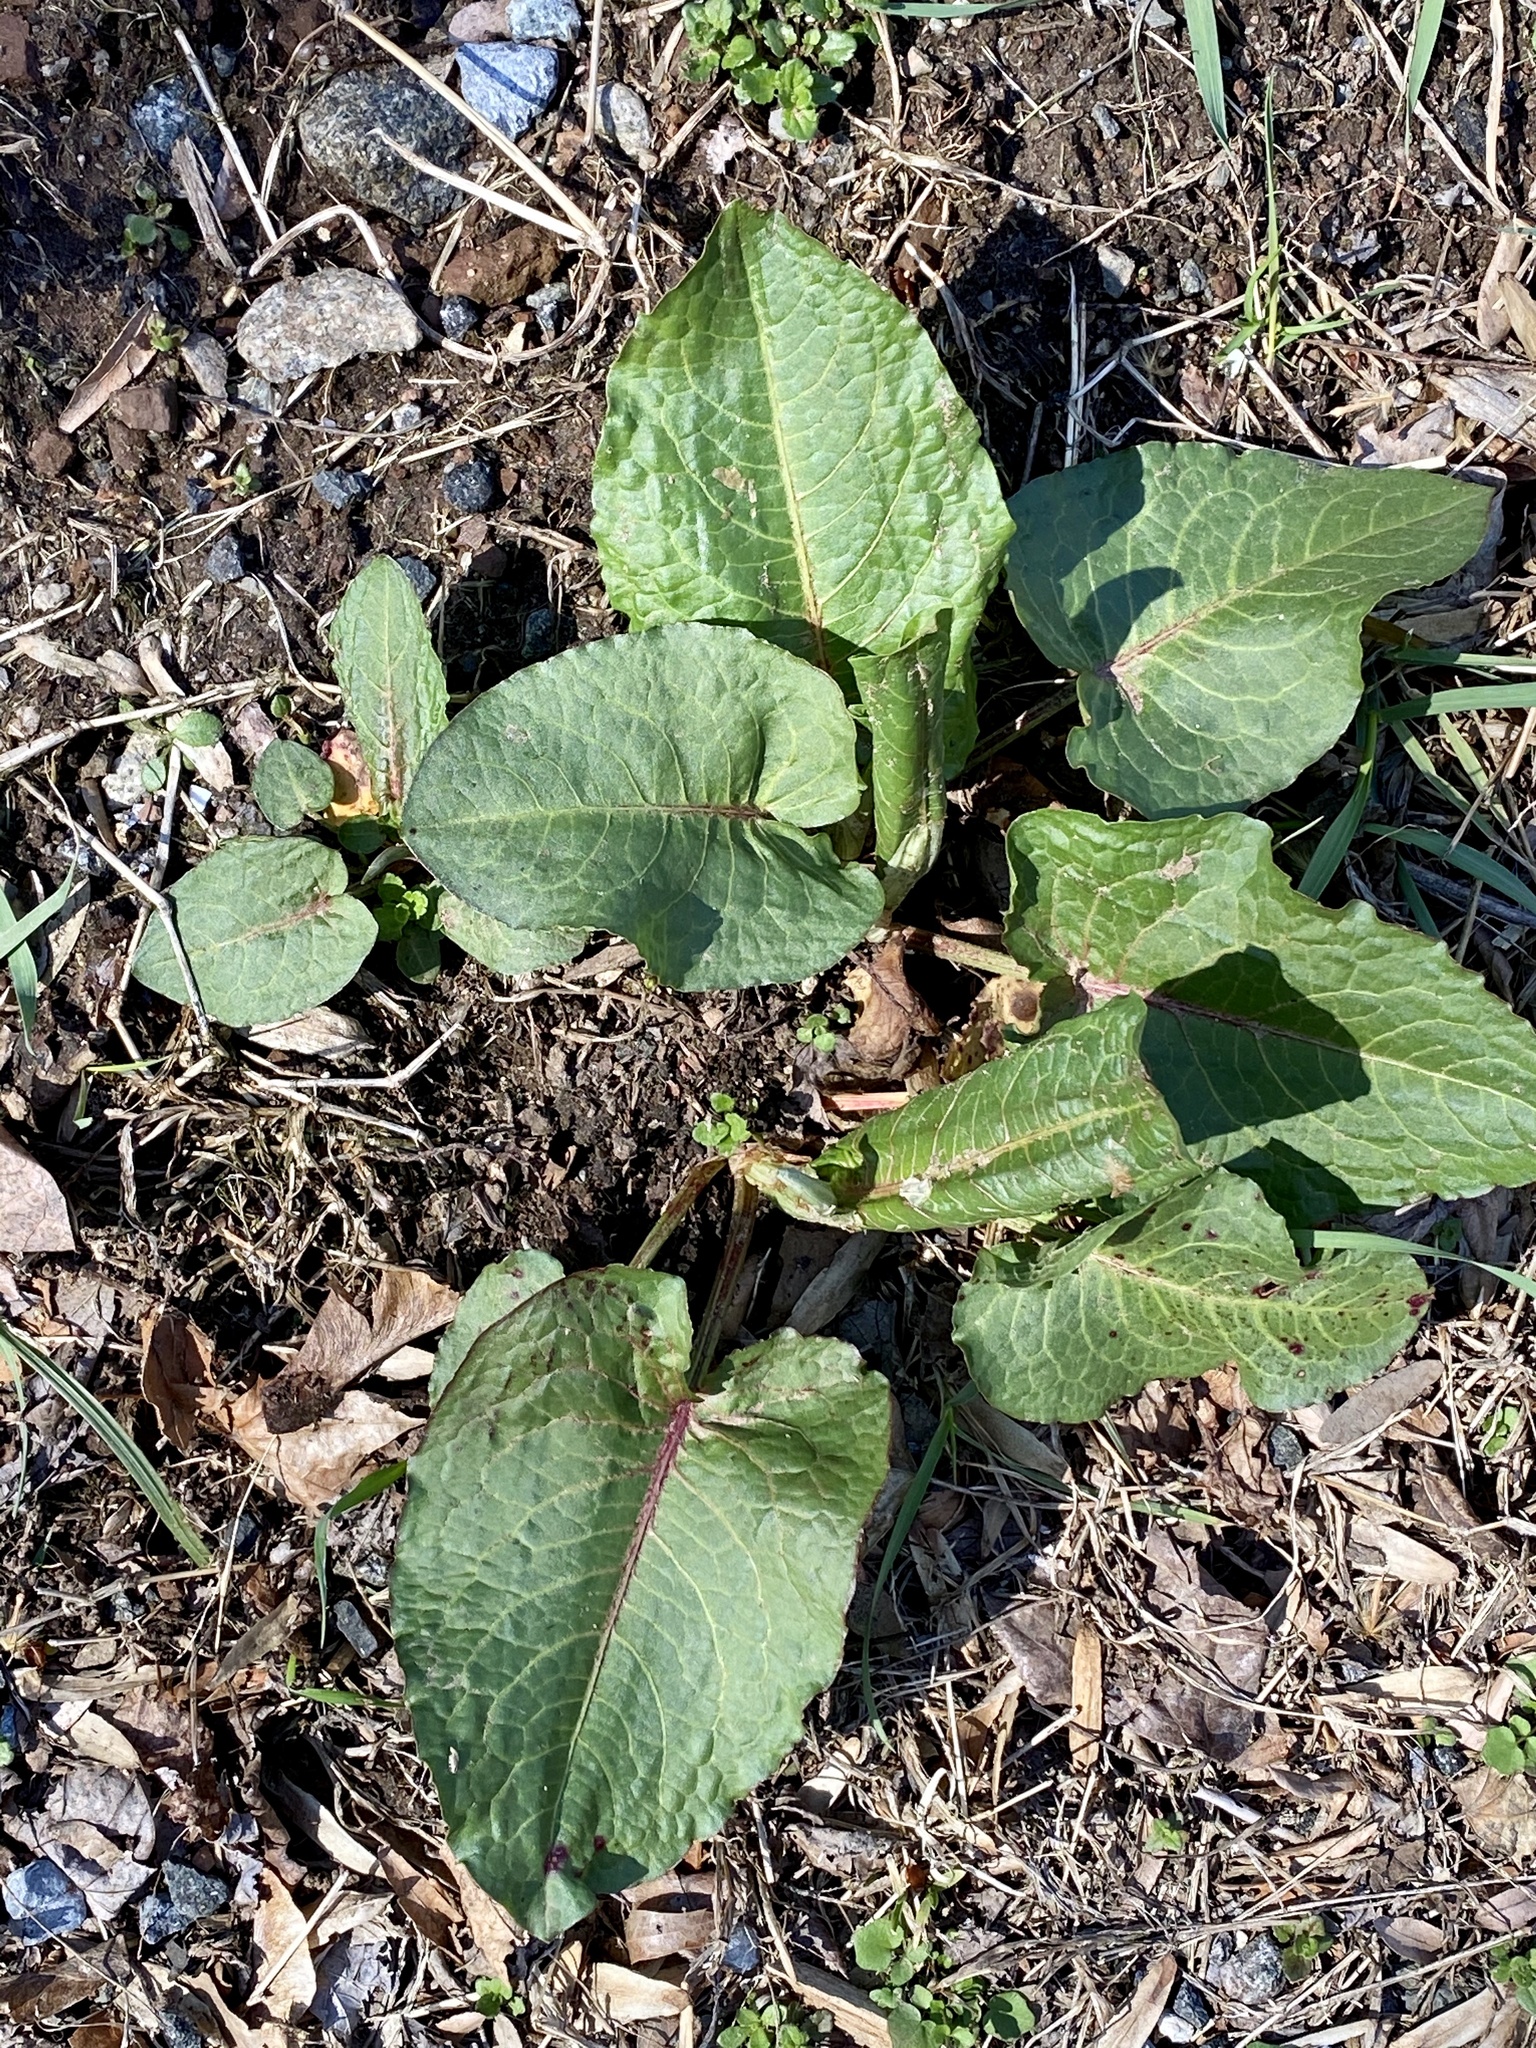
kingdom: Plantae
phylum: Tracheophyta
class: Magnoliopsida
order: Caryophyllales
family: Polygonaceae
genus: Rumex
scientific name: Rumex obtusifolius
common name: Bitter dock
